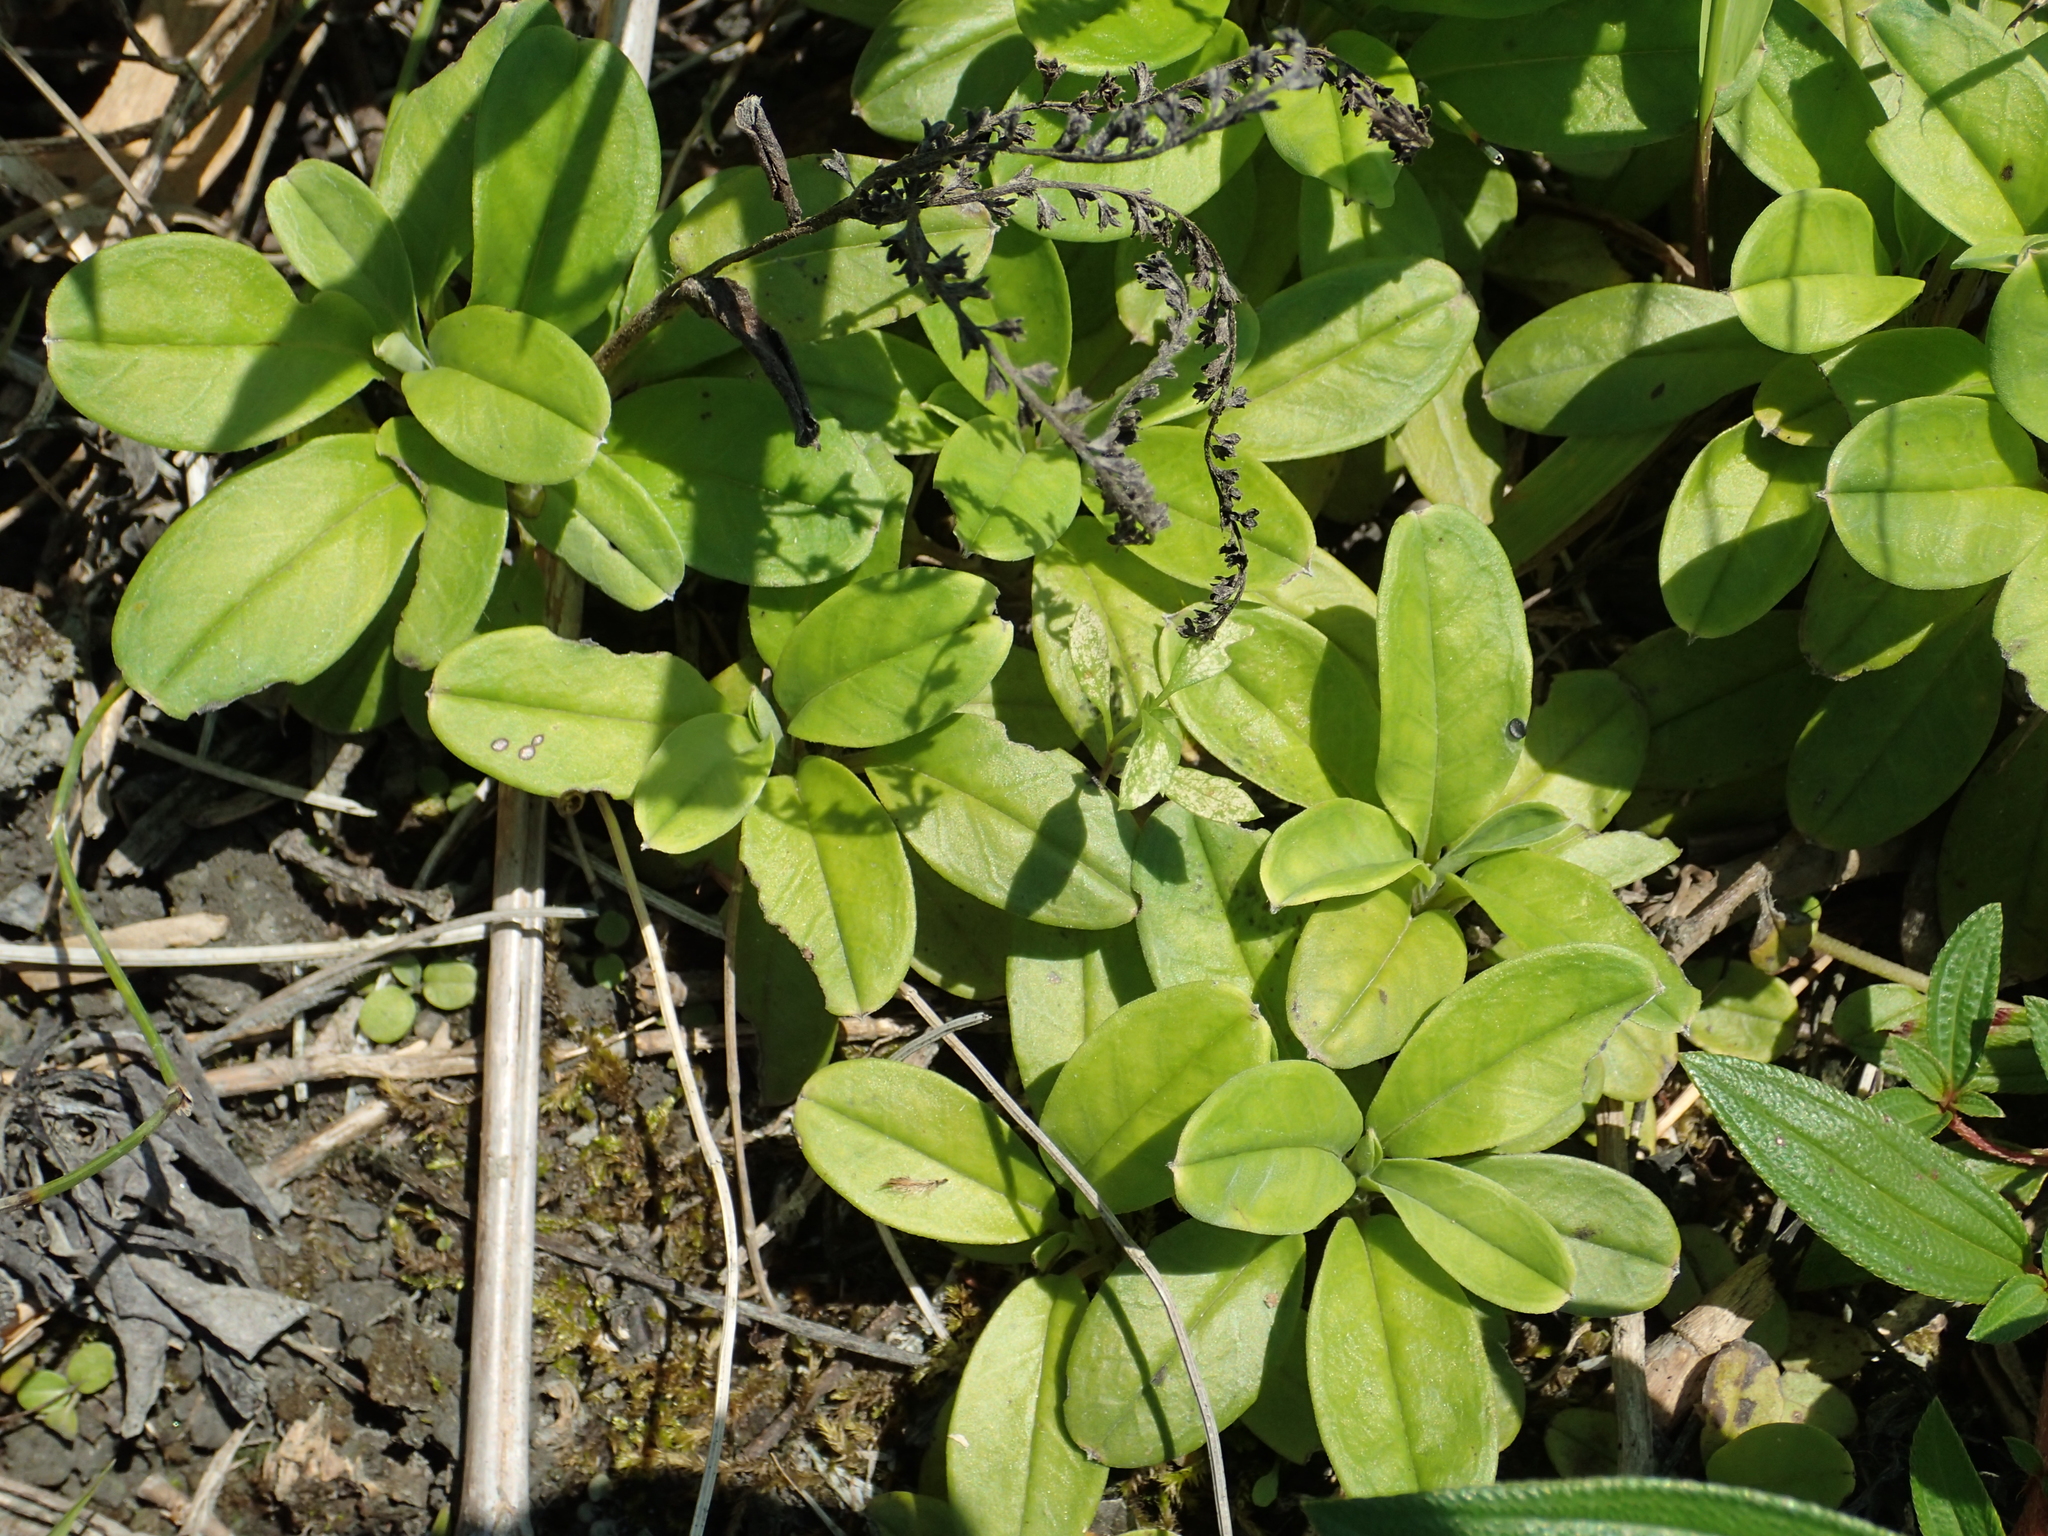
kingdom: Plantae
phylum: Tracheophyta
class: Magnoliopsida
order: Boraginales
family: Boraginaceae
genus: Trigonotis
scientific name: Trigonotis formosana
